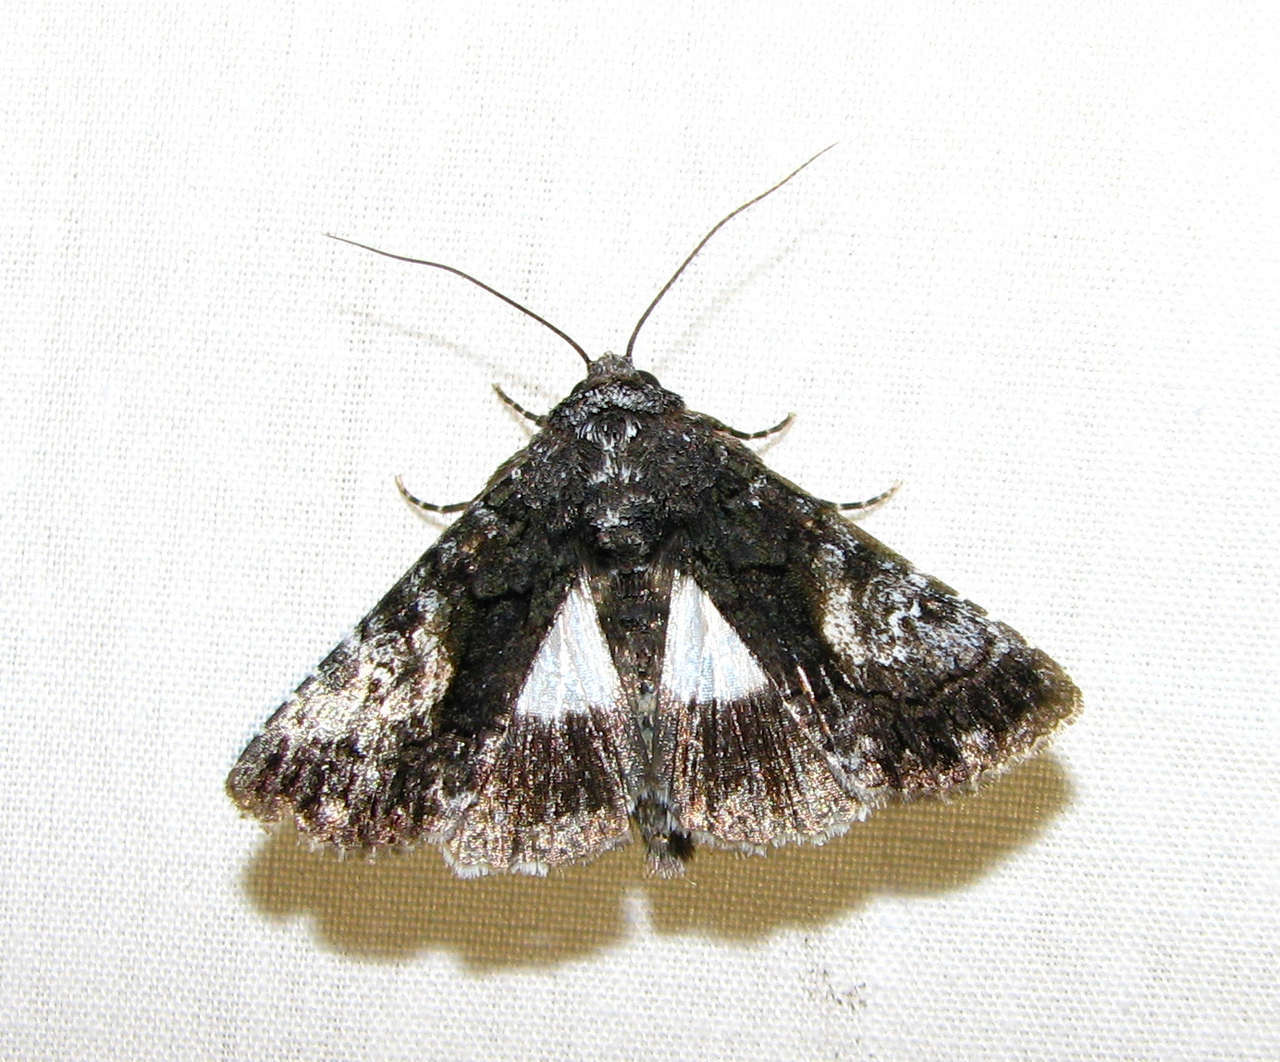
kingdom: Animalia
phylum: Arthropoda
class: Insecta
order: Lepidoptera
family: Noctuidae
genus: Aedia
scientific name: Aedia leucomelas
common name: Sorcerer
